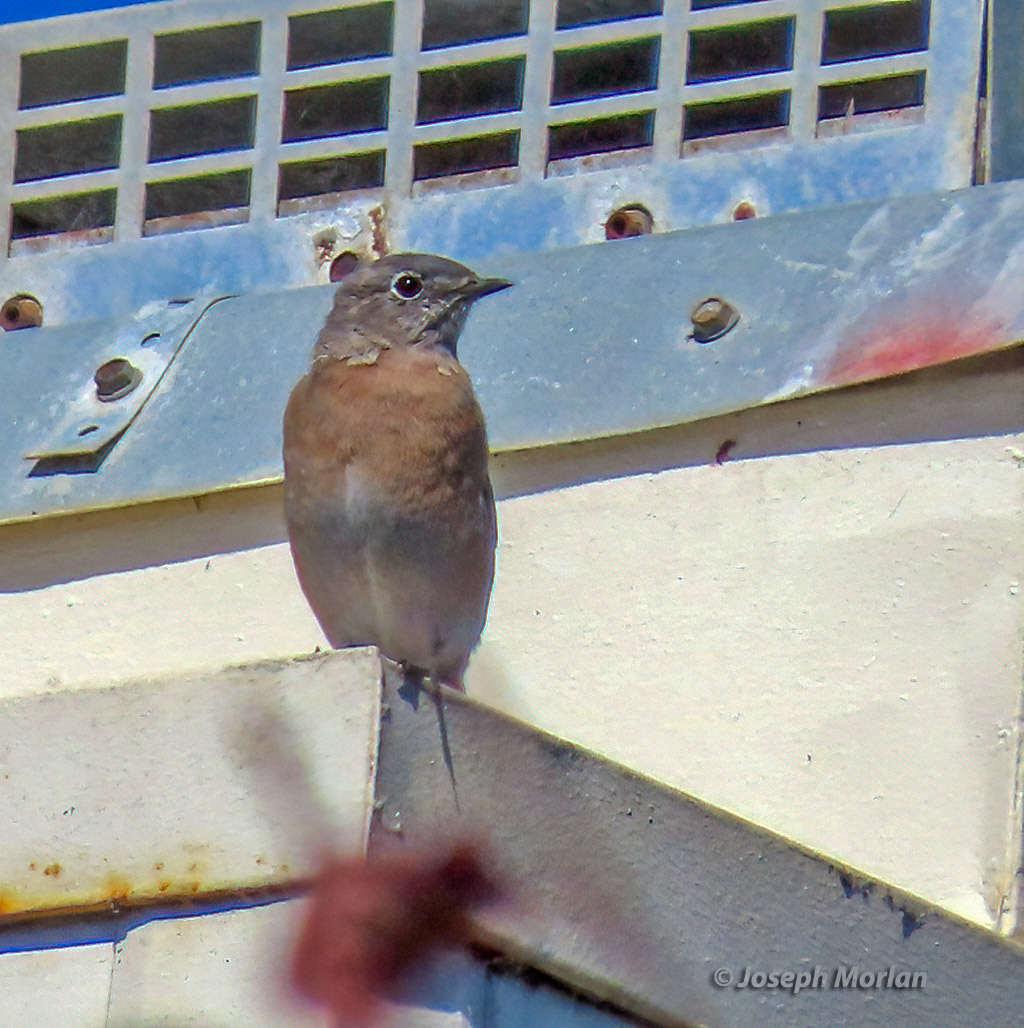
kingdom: Animalia
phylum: Chordata
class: Aves
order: Passeriformes
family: Turdidae
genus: Sialia
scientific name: Sialia mexicana
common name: Western bluebird
